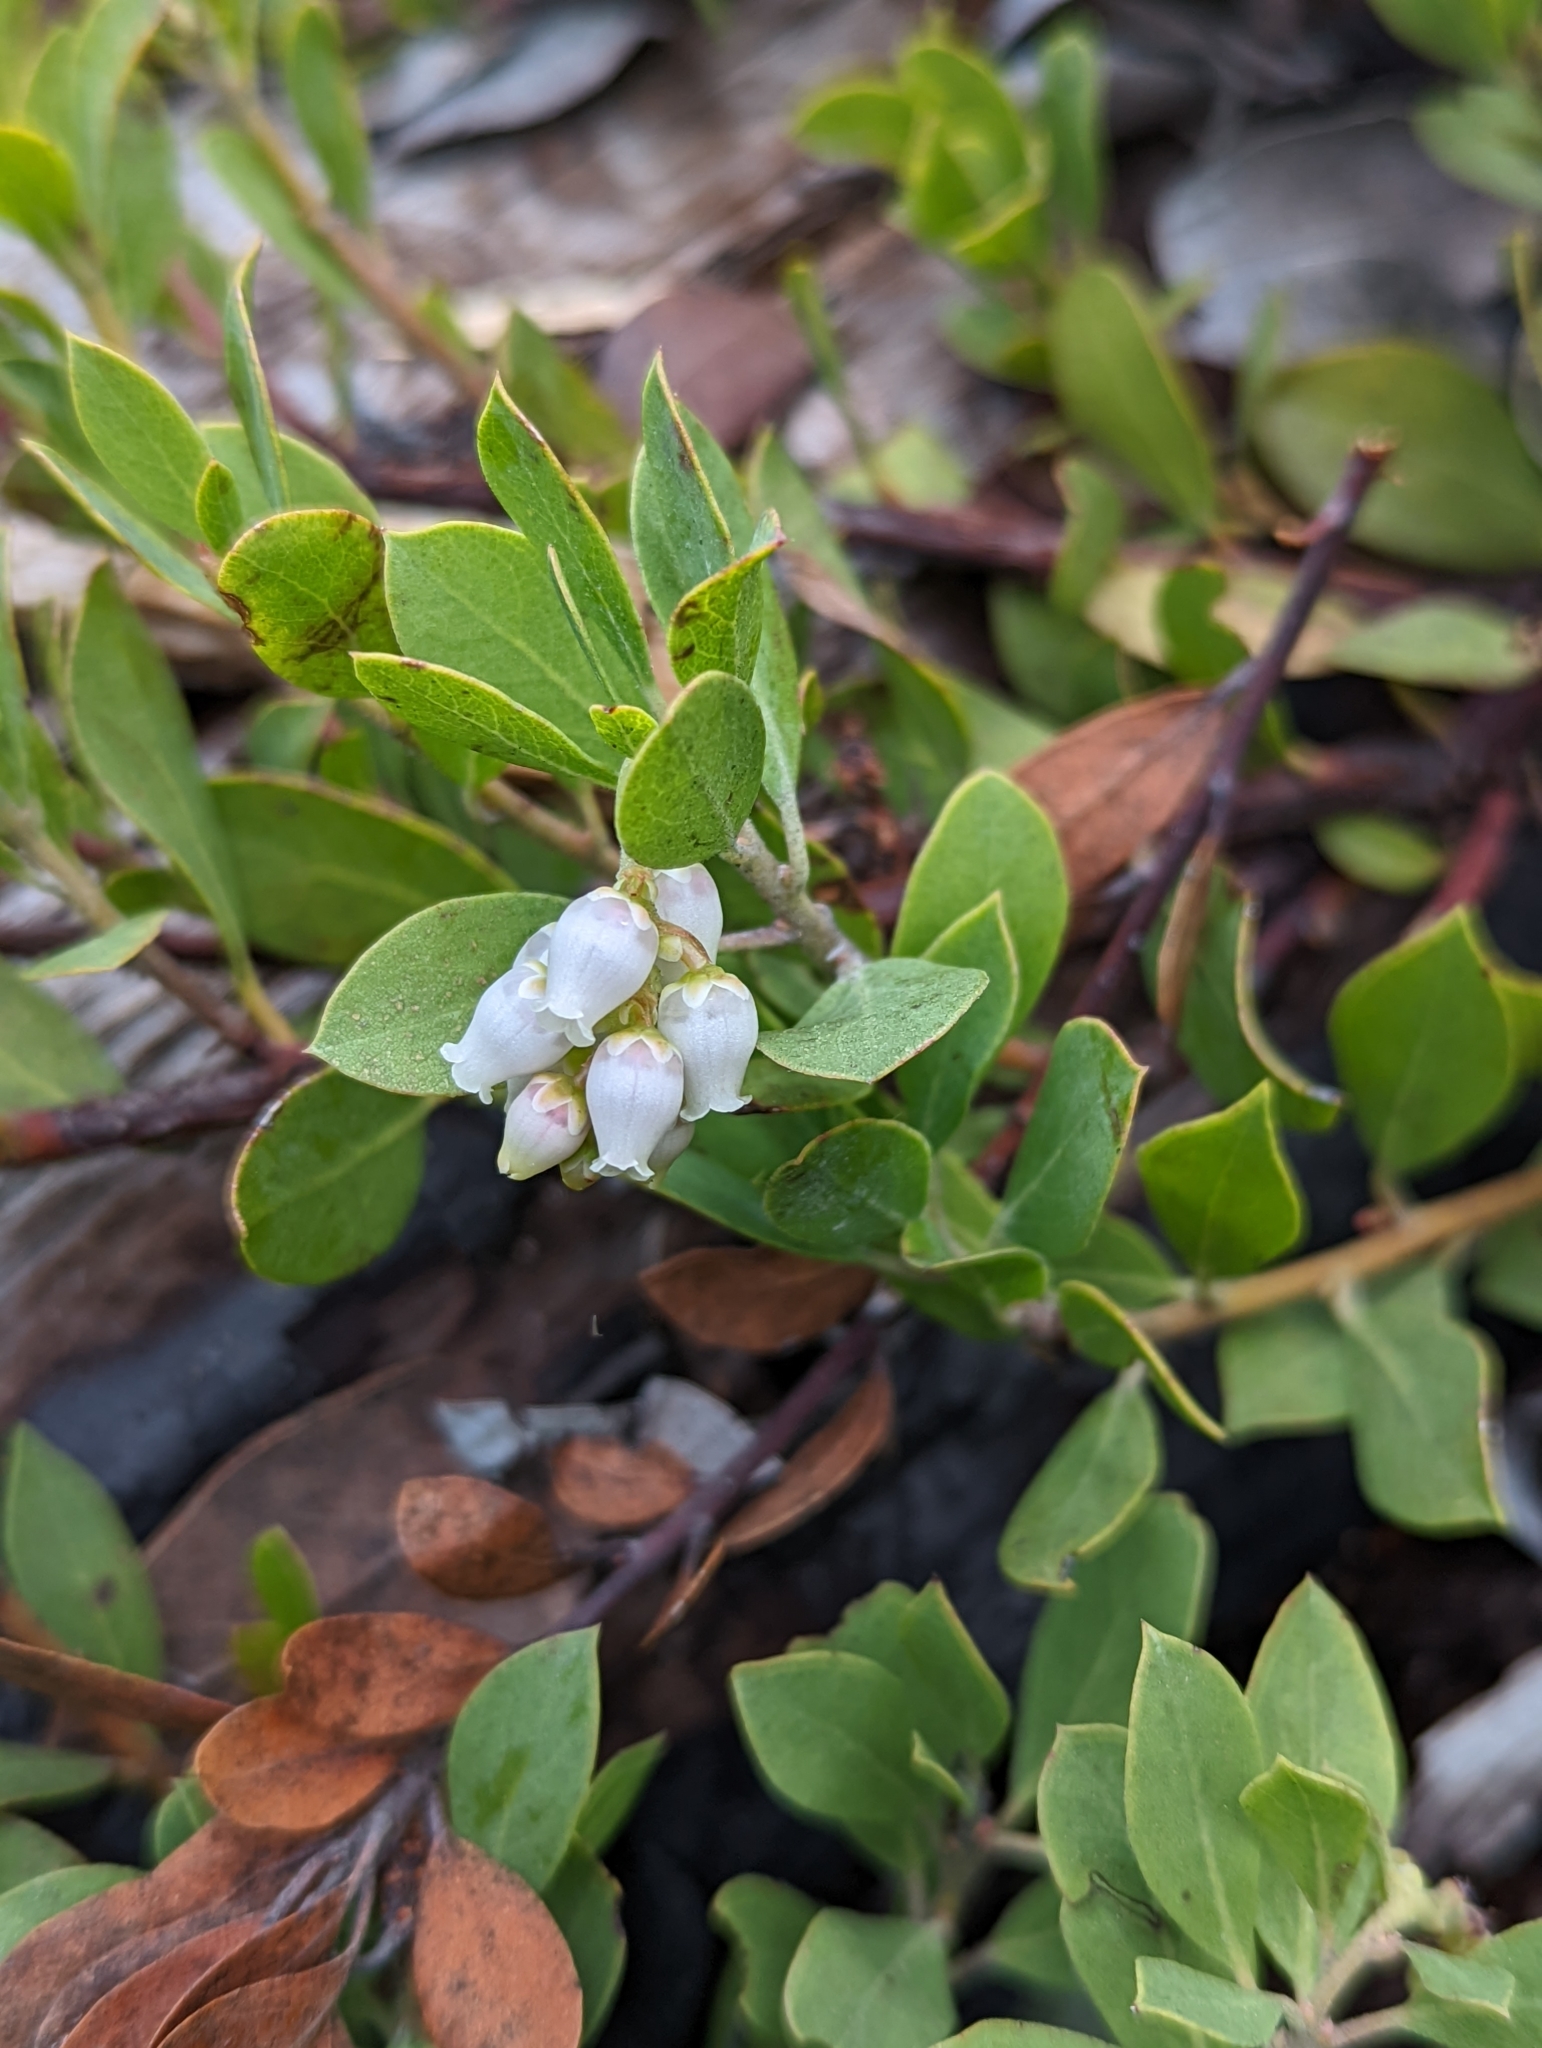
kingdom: Plantae
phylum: Tracheophyta
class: Magnoliopsida
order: Ericales
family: Ericaceae
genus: Arctostaphylos
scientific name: Arctostaphylos nevadensis
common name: Pinemat manzanita
